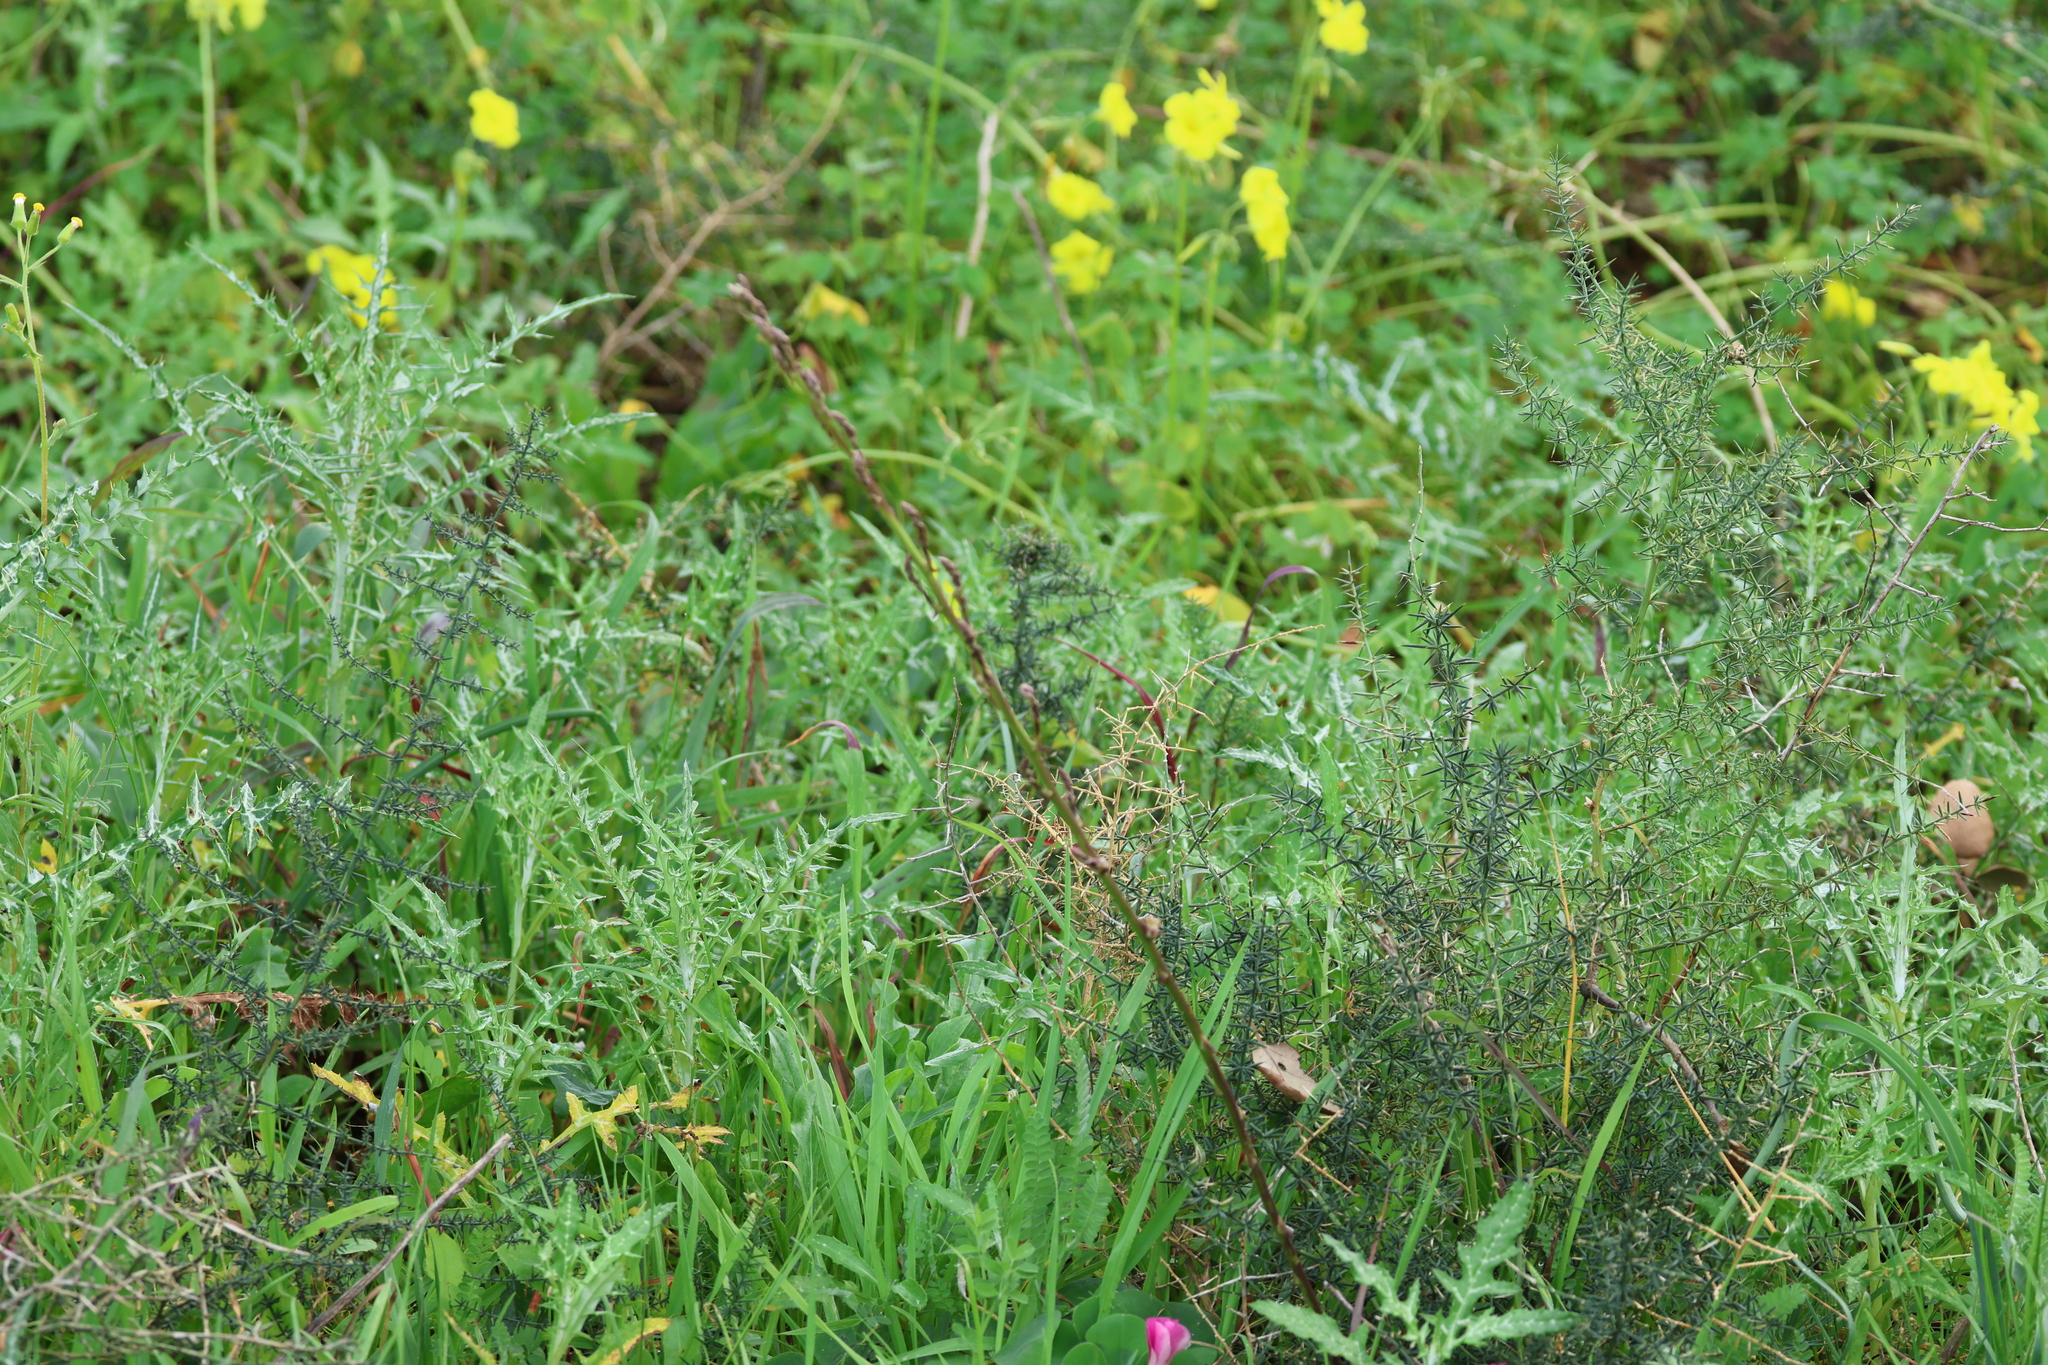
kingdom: Plantae
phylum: Tracheophyta
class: Liliopsida
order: Asparagales
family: Asparagaceae
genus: Asparagus
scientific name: Asparagus aphyllus
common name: Mediterranean asparagus
